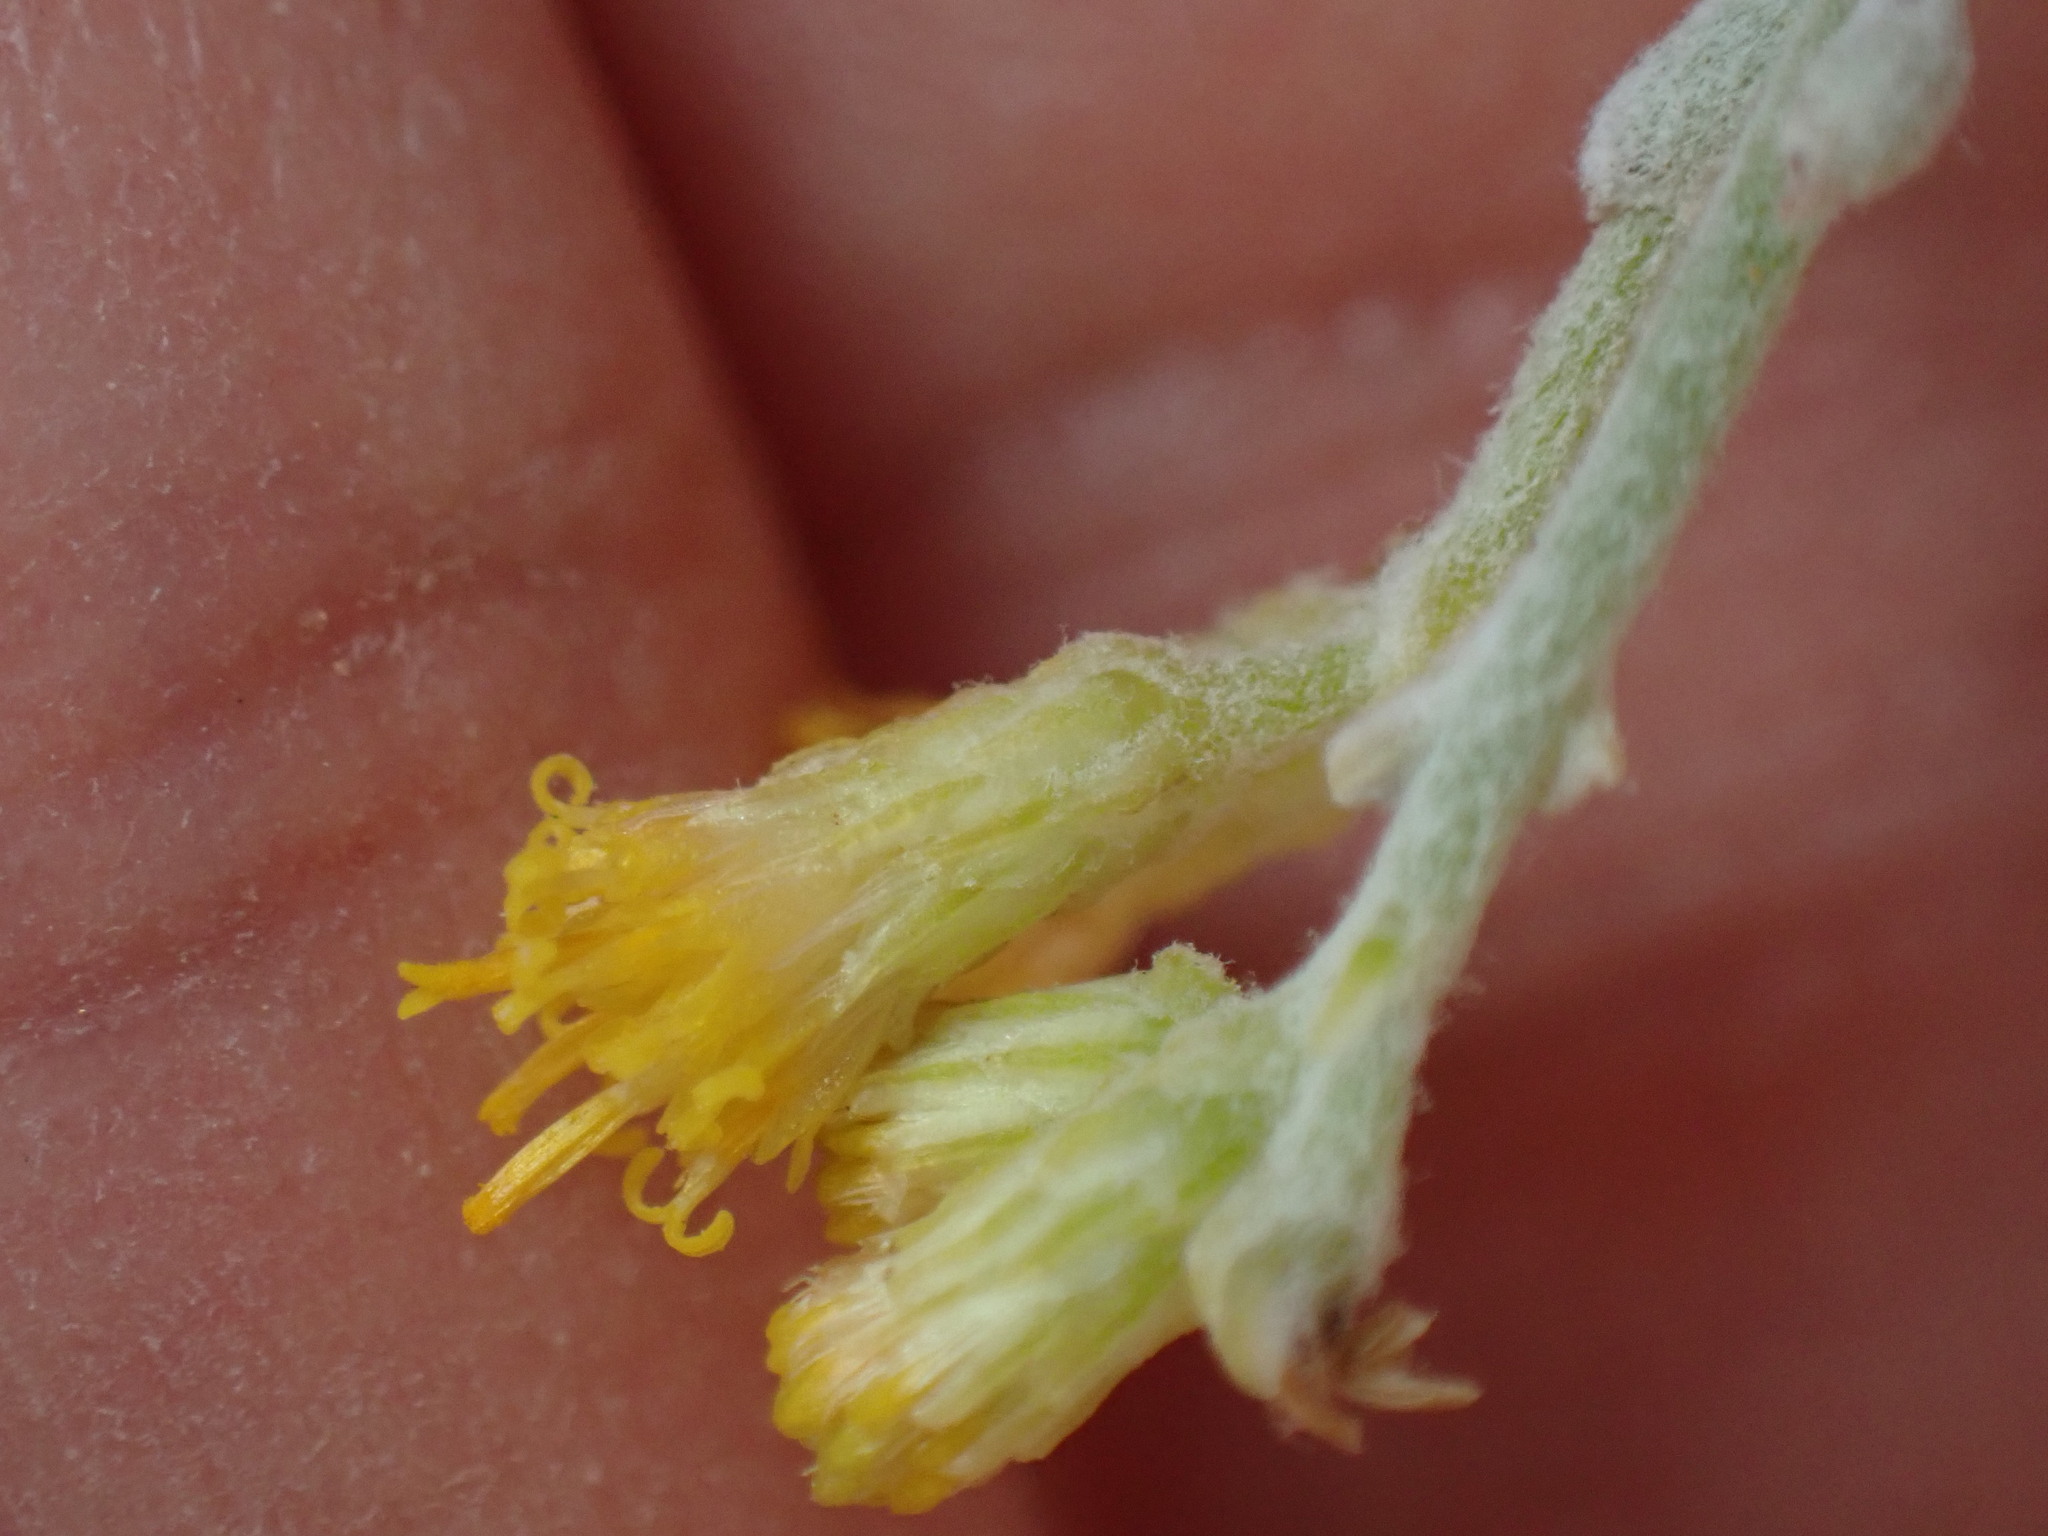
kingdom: Plantae
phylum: Tracheophyta
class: Magnoliopsida
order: Asterales
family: Asteraceae
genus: Schizogyne
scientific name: Schizogyne sericea
